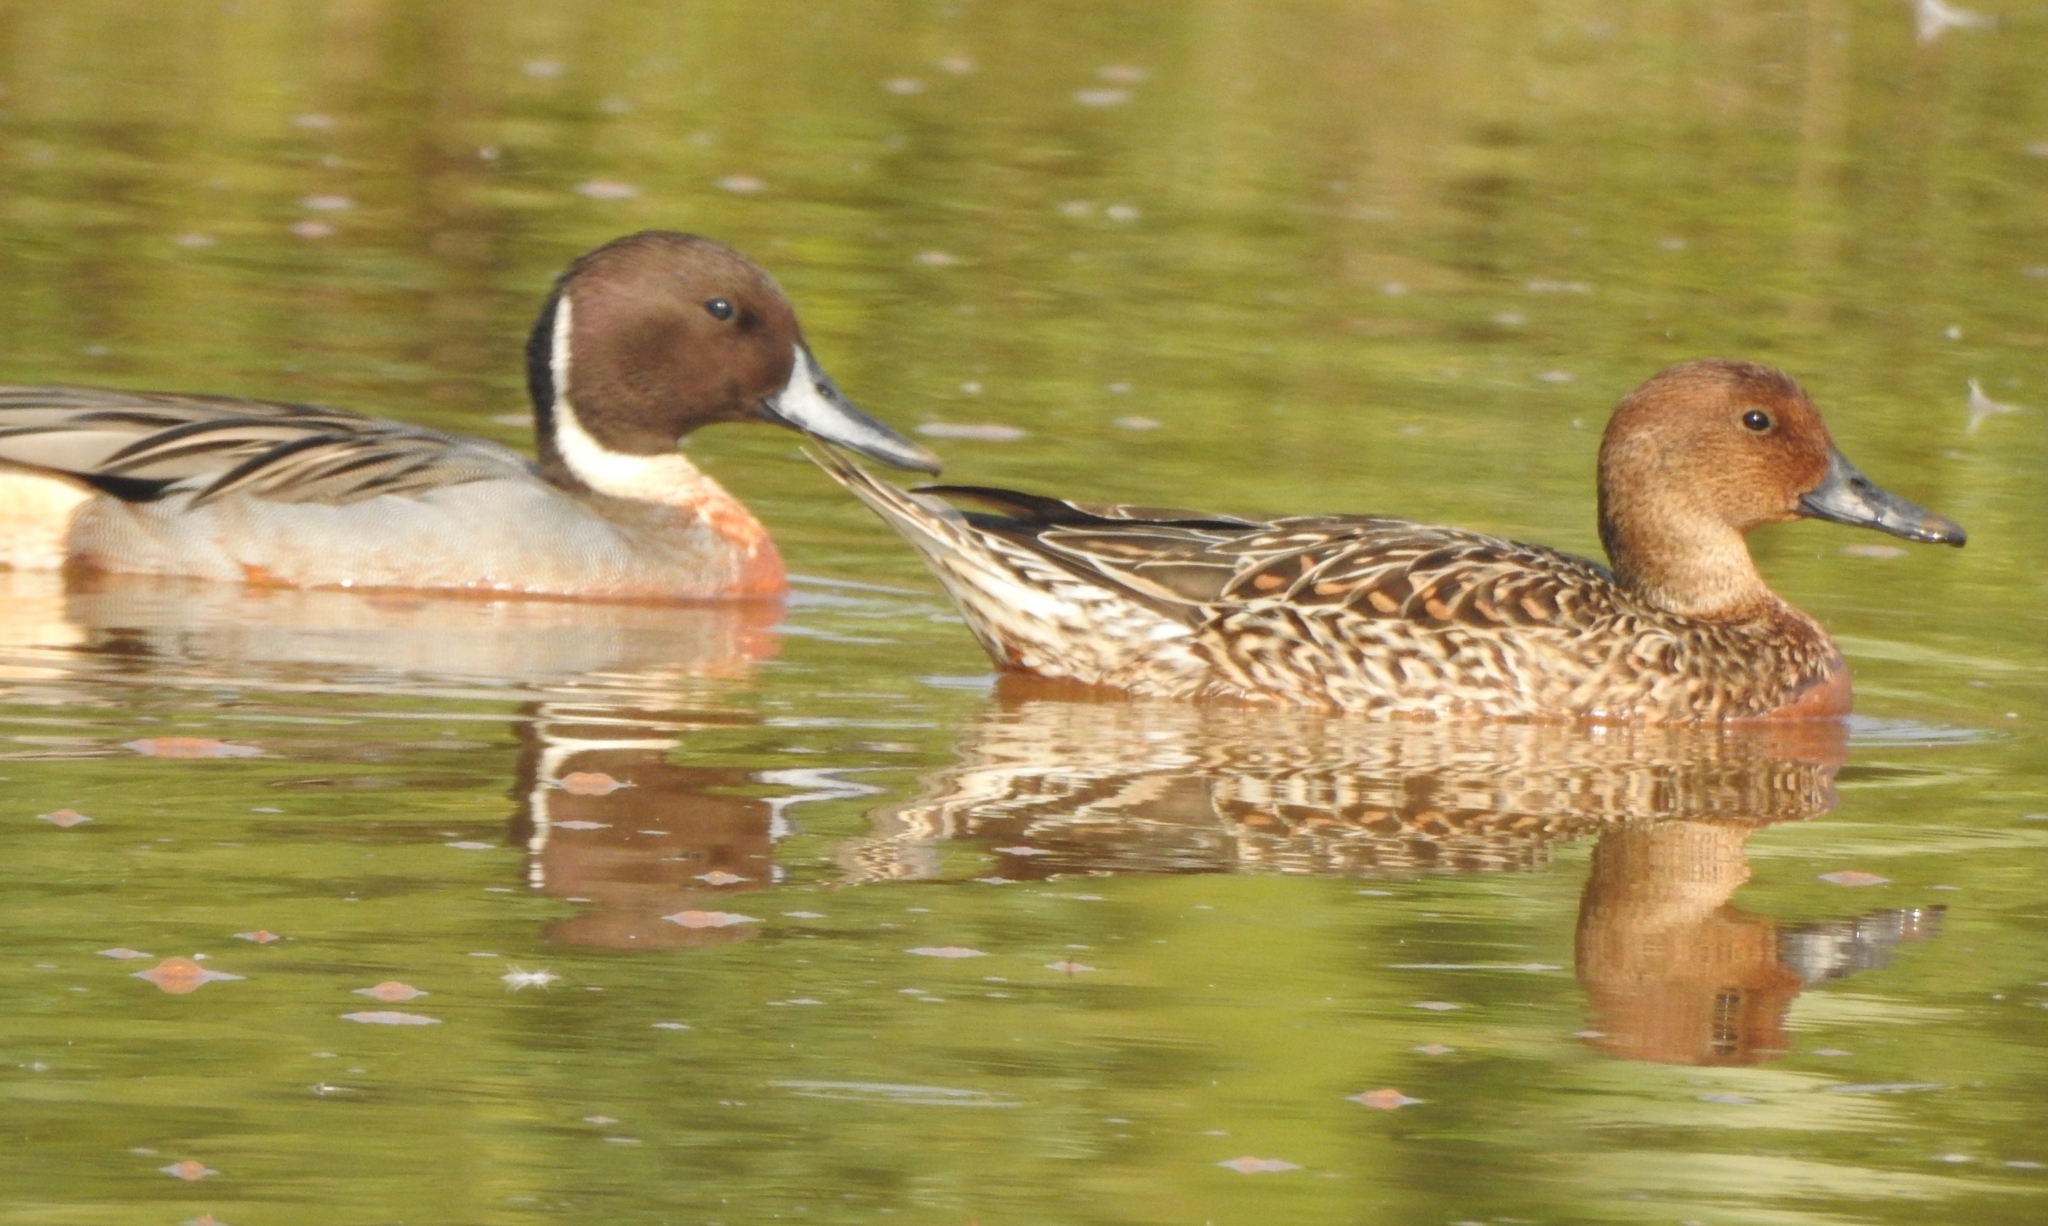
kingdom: Animalia
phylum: Chordata
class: Aves
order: Anseriformes
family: Anatidae
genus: Anas
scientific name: Anas acuta
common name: Northern pintail
